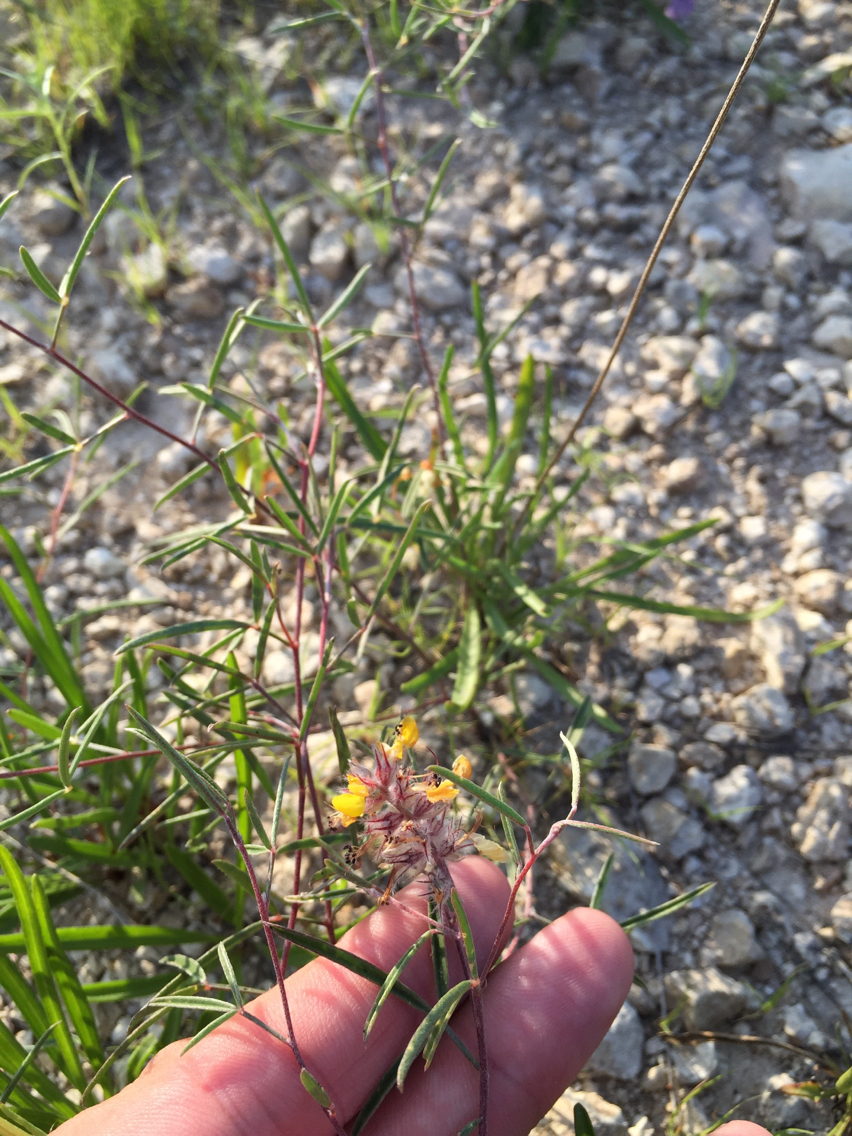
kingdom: Plantae
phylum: Tracheophyta
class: Magnoliopsida
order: Fabales
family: Fabaceae
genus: Dalea
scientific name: Dalea hallii
